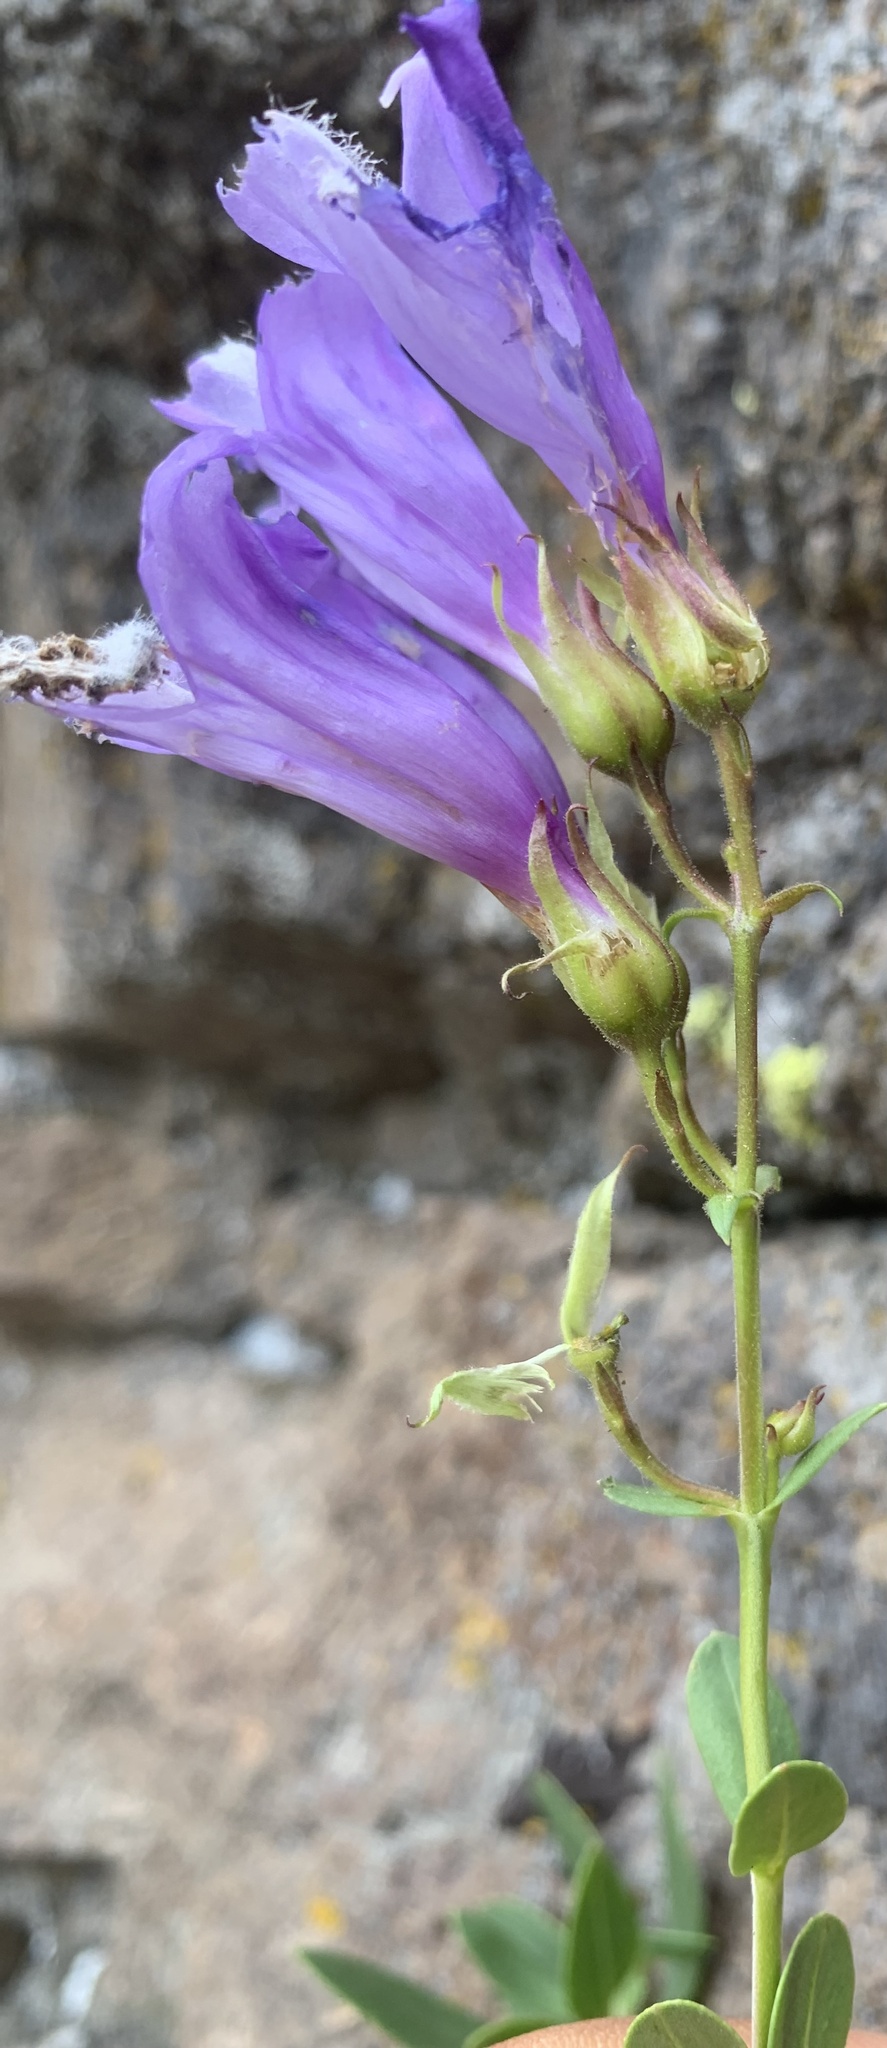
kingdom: Plantae
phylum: Tracheophyta
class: Magnoliopsida
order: Lamiales
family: Plantaginaceae
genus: Penstemon
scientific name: Penstemon fruticosus
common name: Bush penstemon
